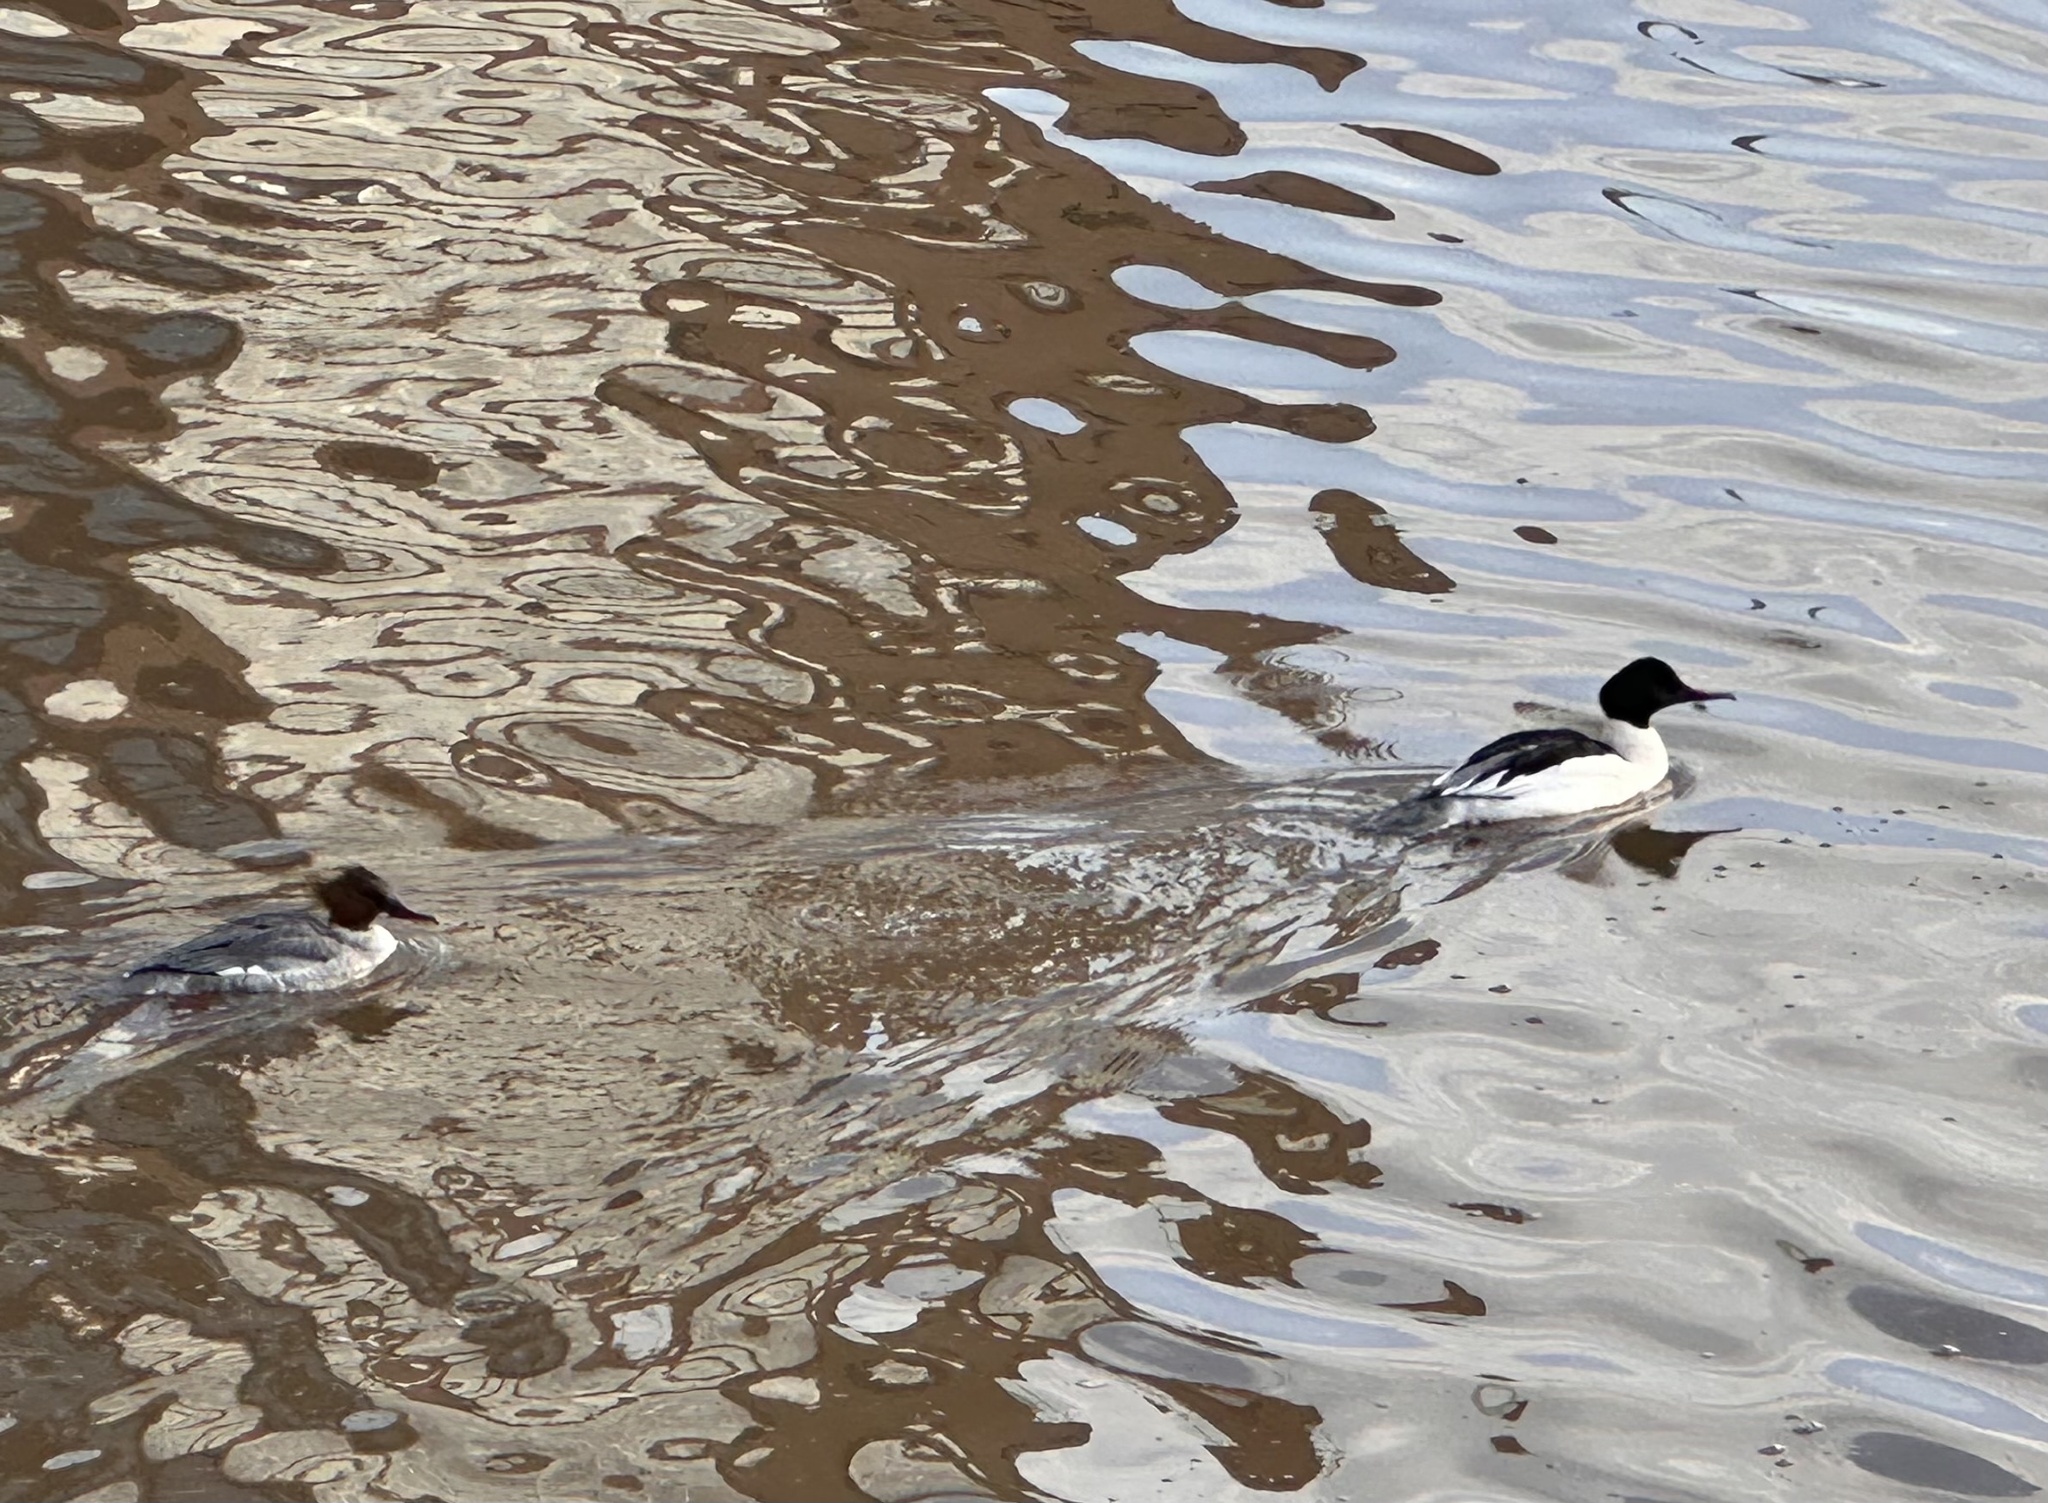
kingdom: Animalia
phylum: Chordata
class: Aves
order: Anseriformes
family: Anatidae
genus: Mergus
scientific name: Mergus merganser
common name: Common merganser
